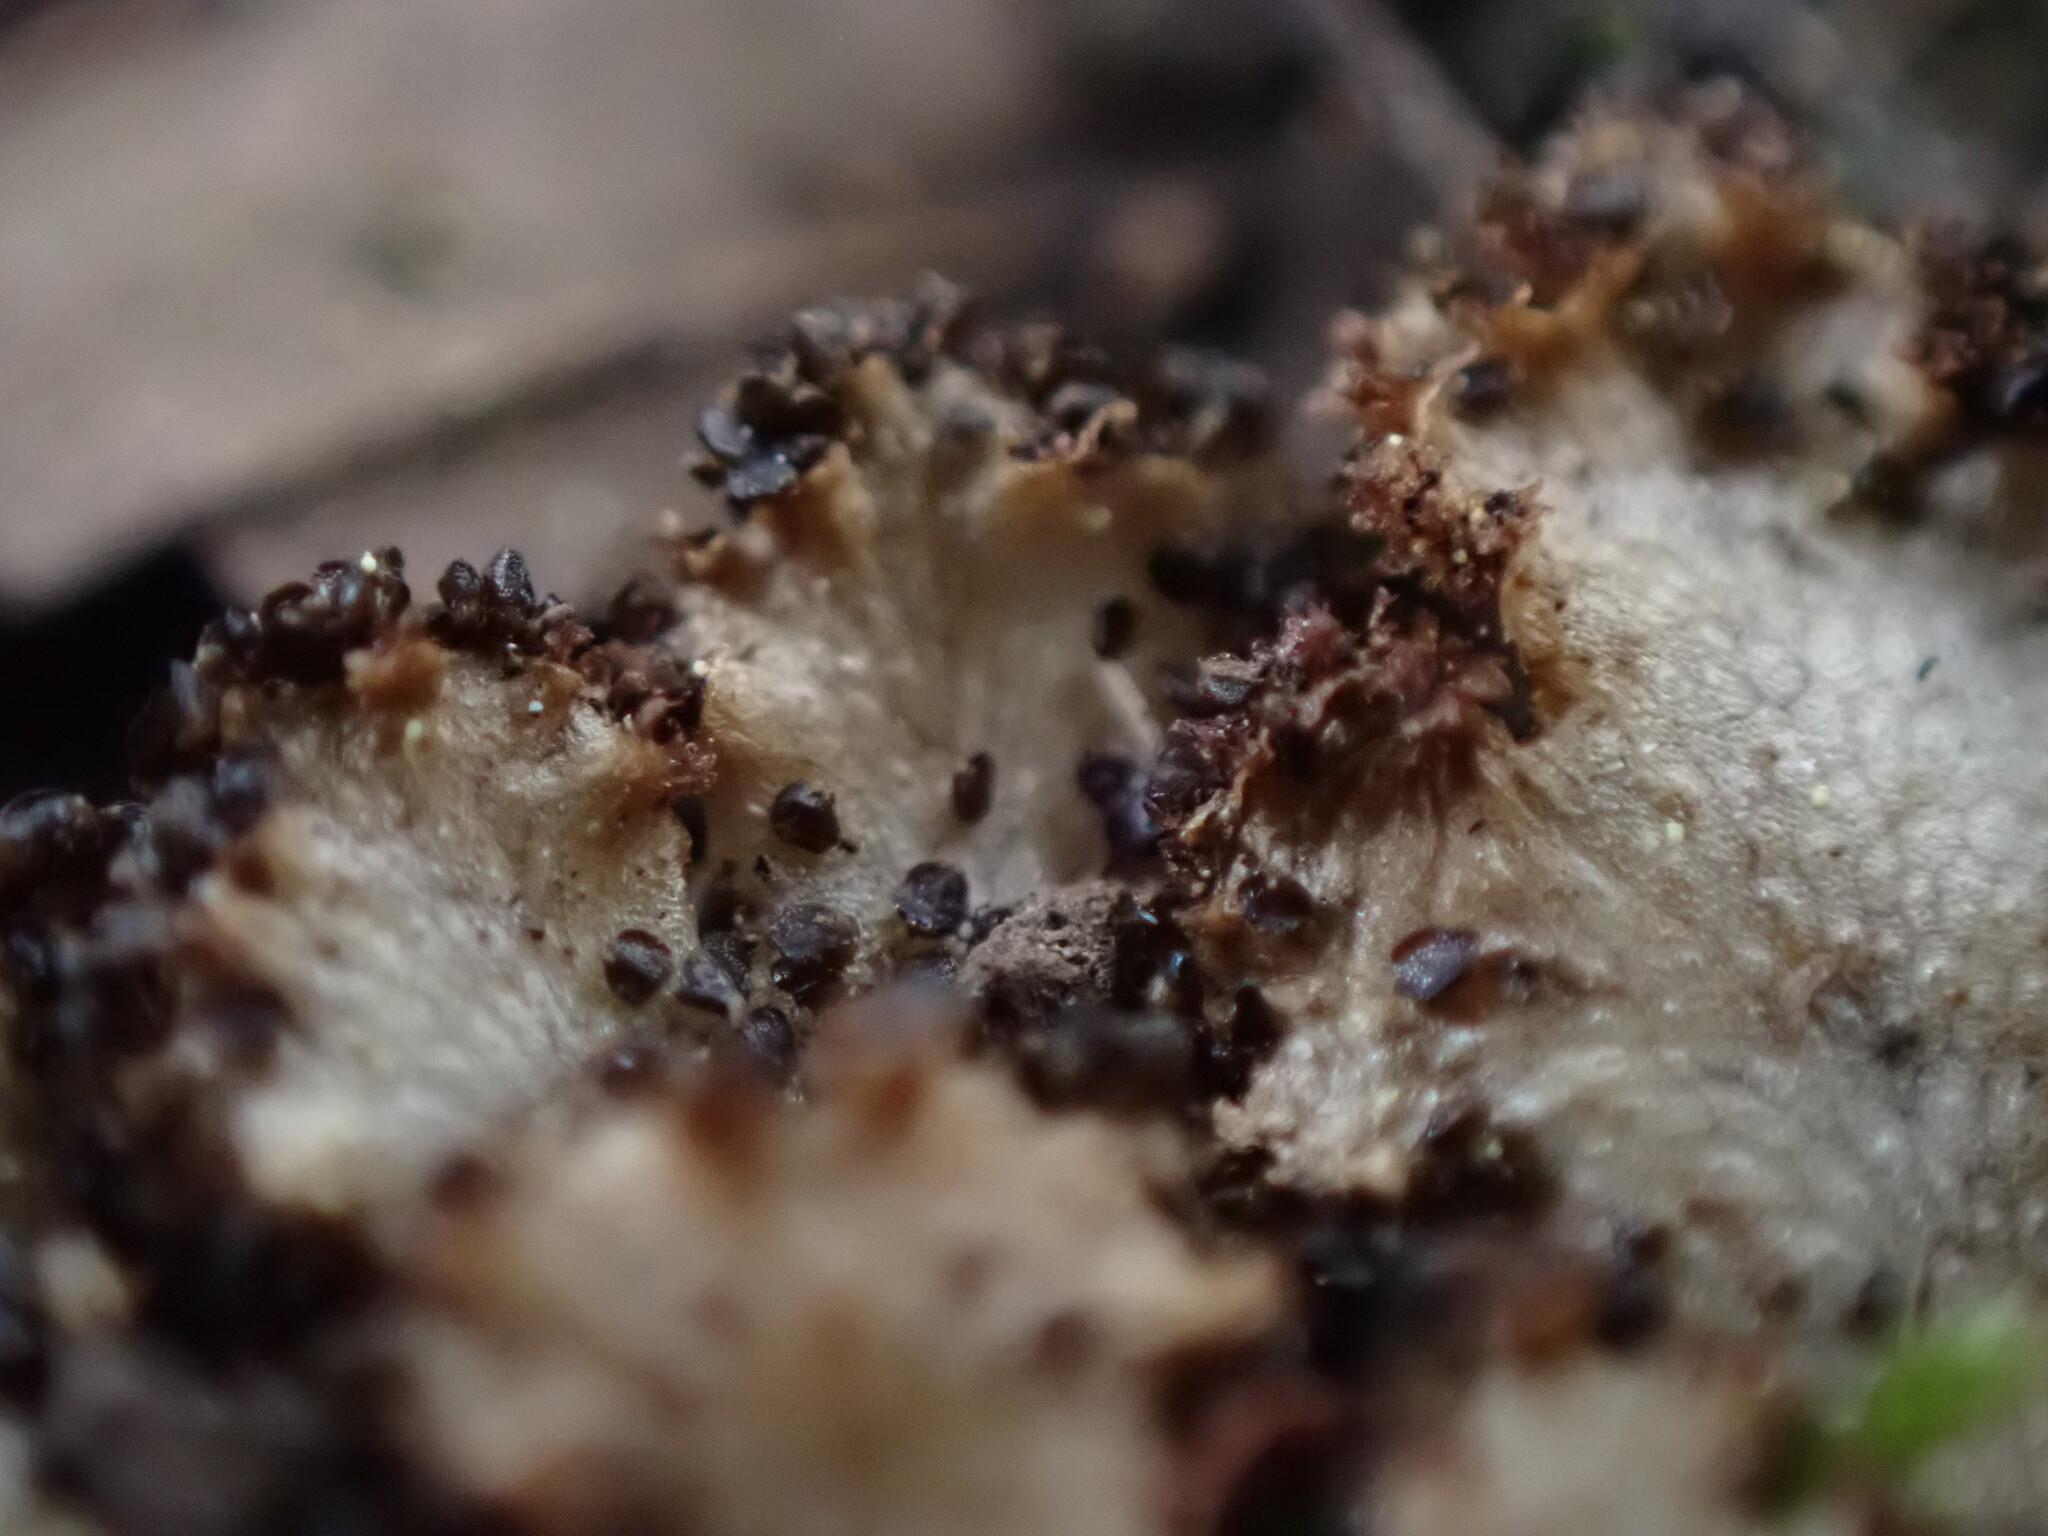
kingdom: Plantae
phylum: Marchantiophyta
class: Marchantiopsida
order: Marchantiales
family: Conocephalaceae
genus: Sandea
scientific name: Sandea japonica
